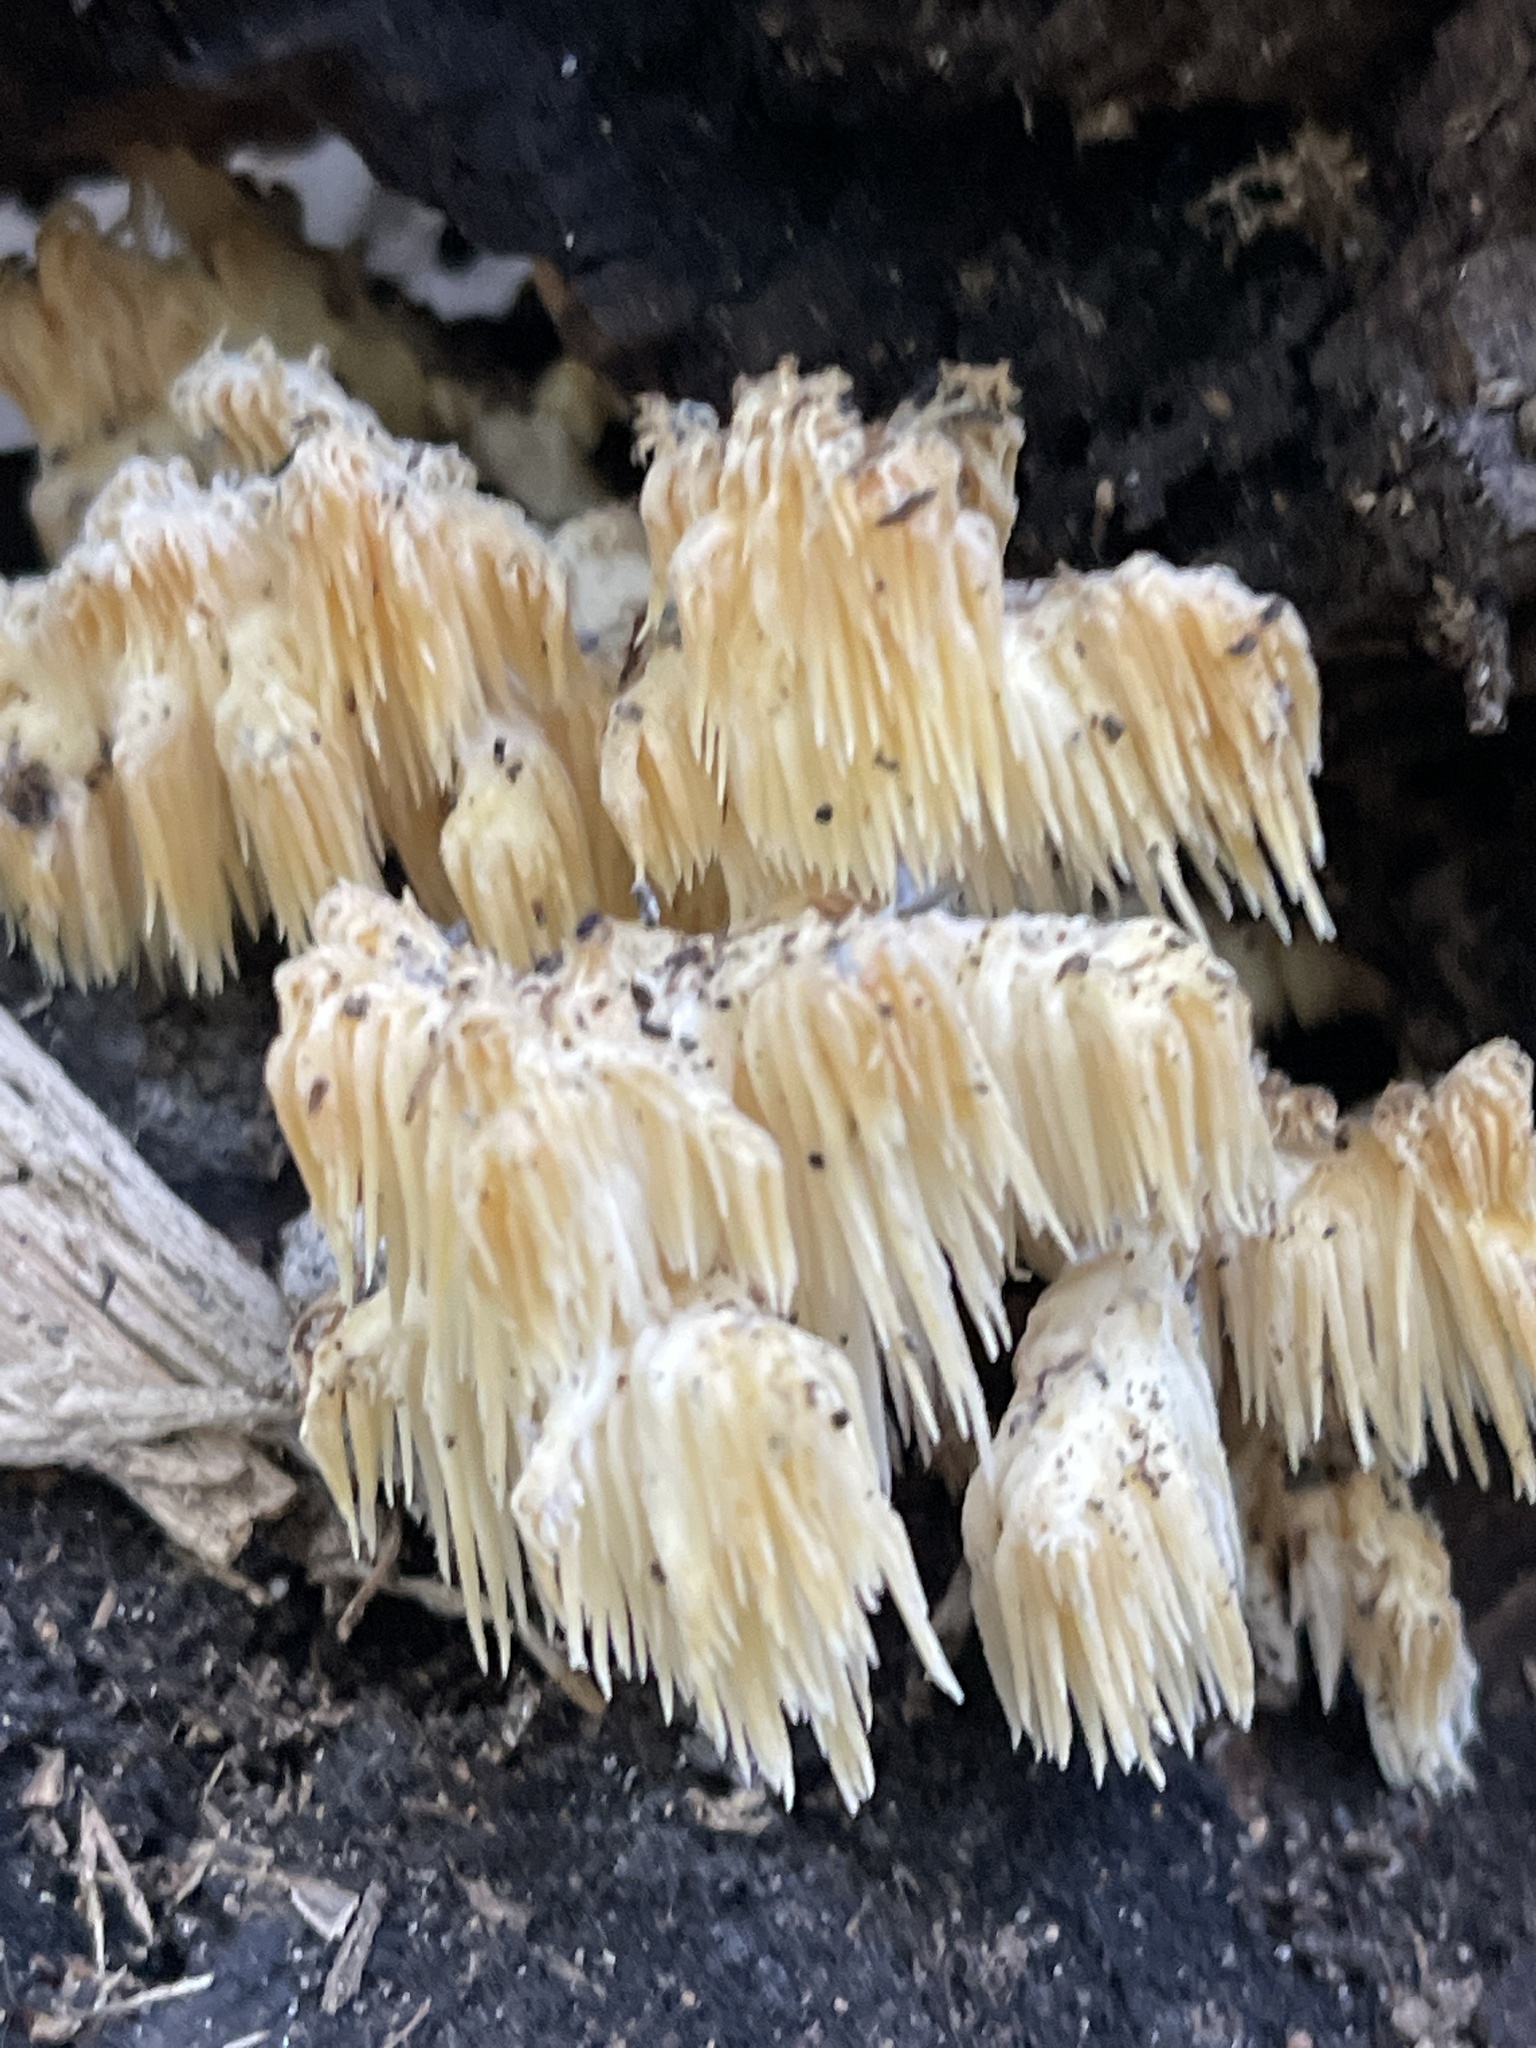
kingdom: Fungi
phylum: Basidiomycota
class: Agaricomycetes
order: Russulales
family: Hericiaceae
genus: Hericium
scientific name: Hericium americanum
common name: Bear's head tooth
